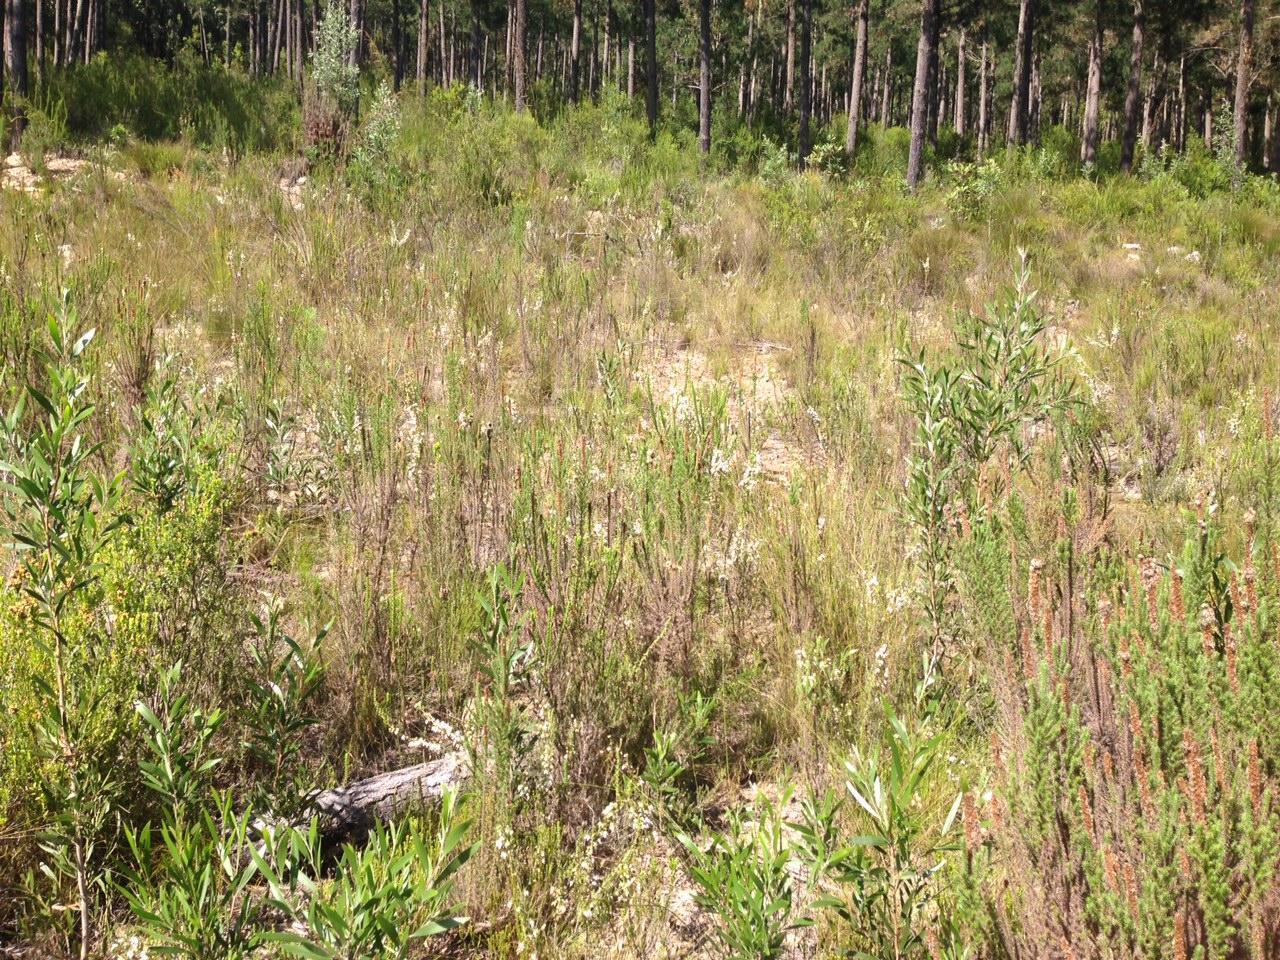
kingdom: Plantae
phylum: Tracheophyta
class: Magnoliopsida
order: Ericales
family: Ericaceae
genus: Erica
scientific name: Erica glomiflora
